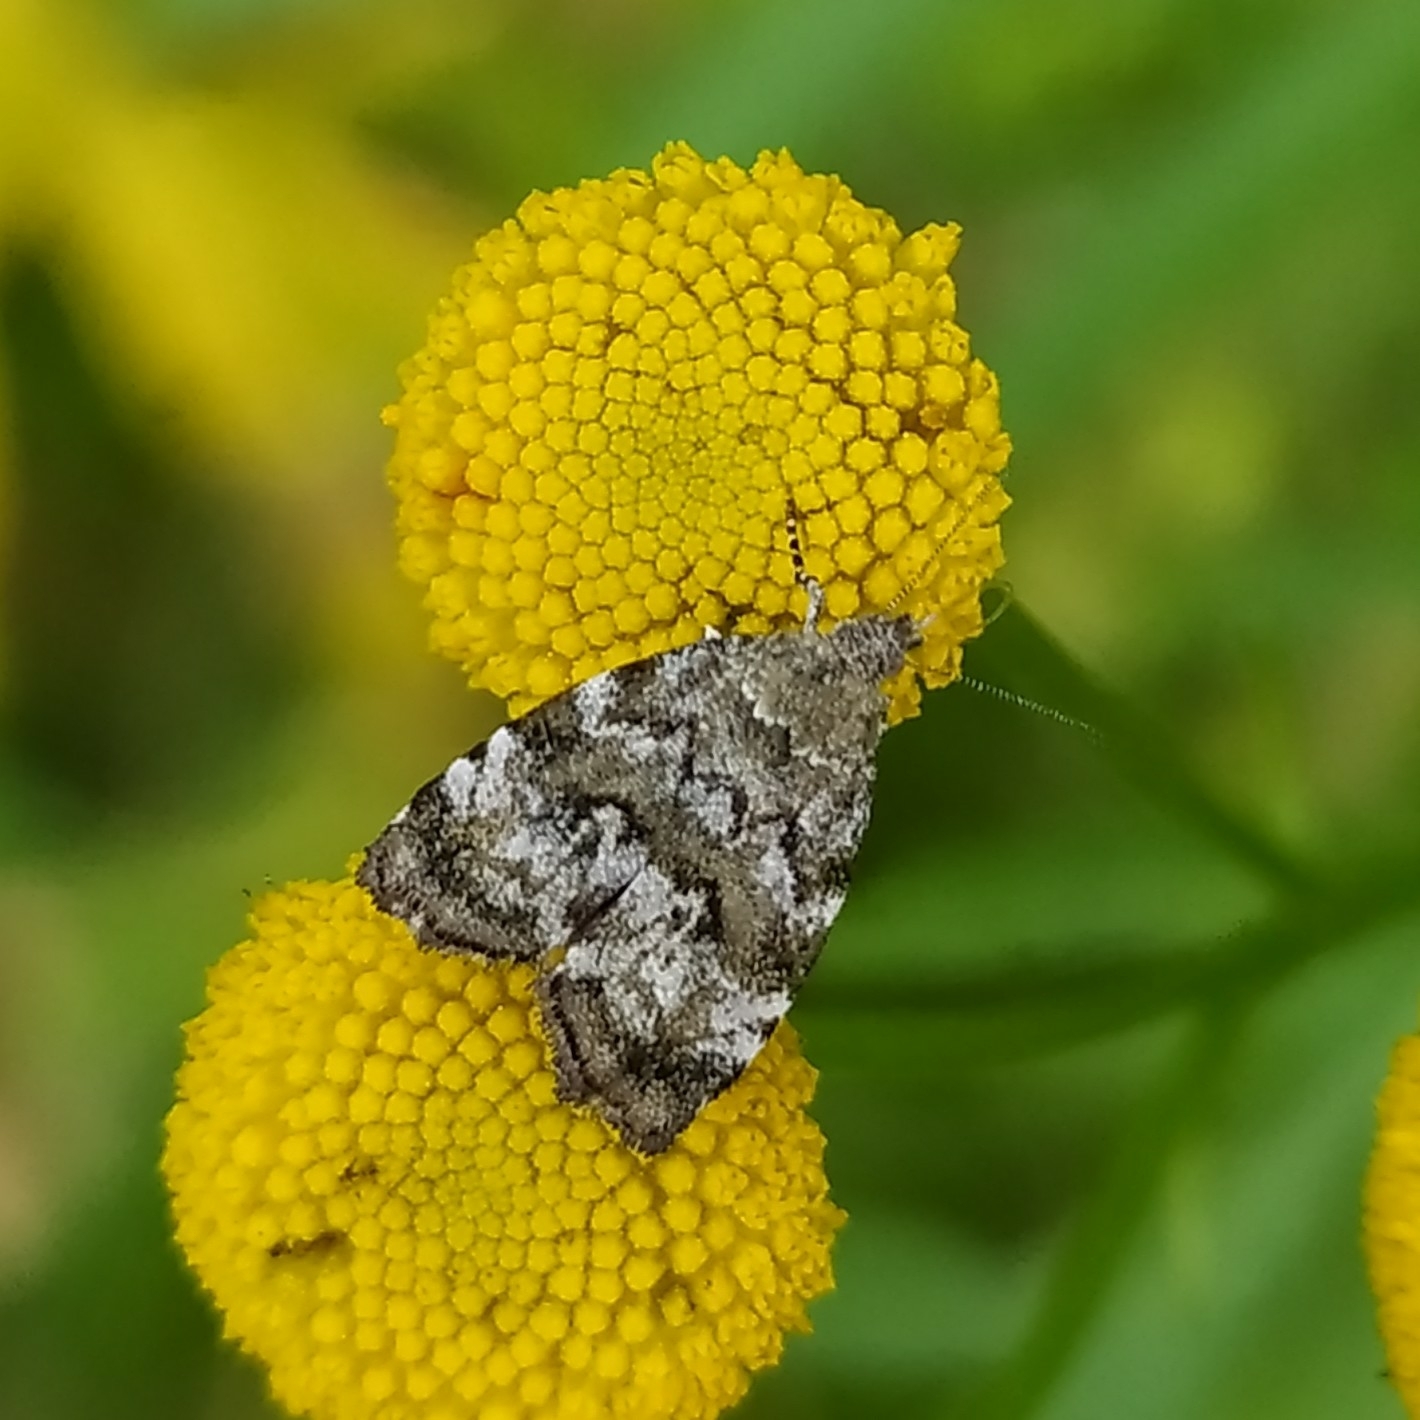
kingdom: Animalia
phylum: Arthropoda
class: Insecta
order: Lepidoptera
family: Choreutidae
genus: Choreutis
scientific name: Choreutis diana
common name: Inverness twitcher
